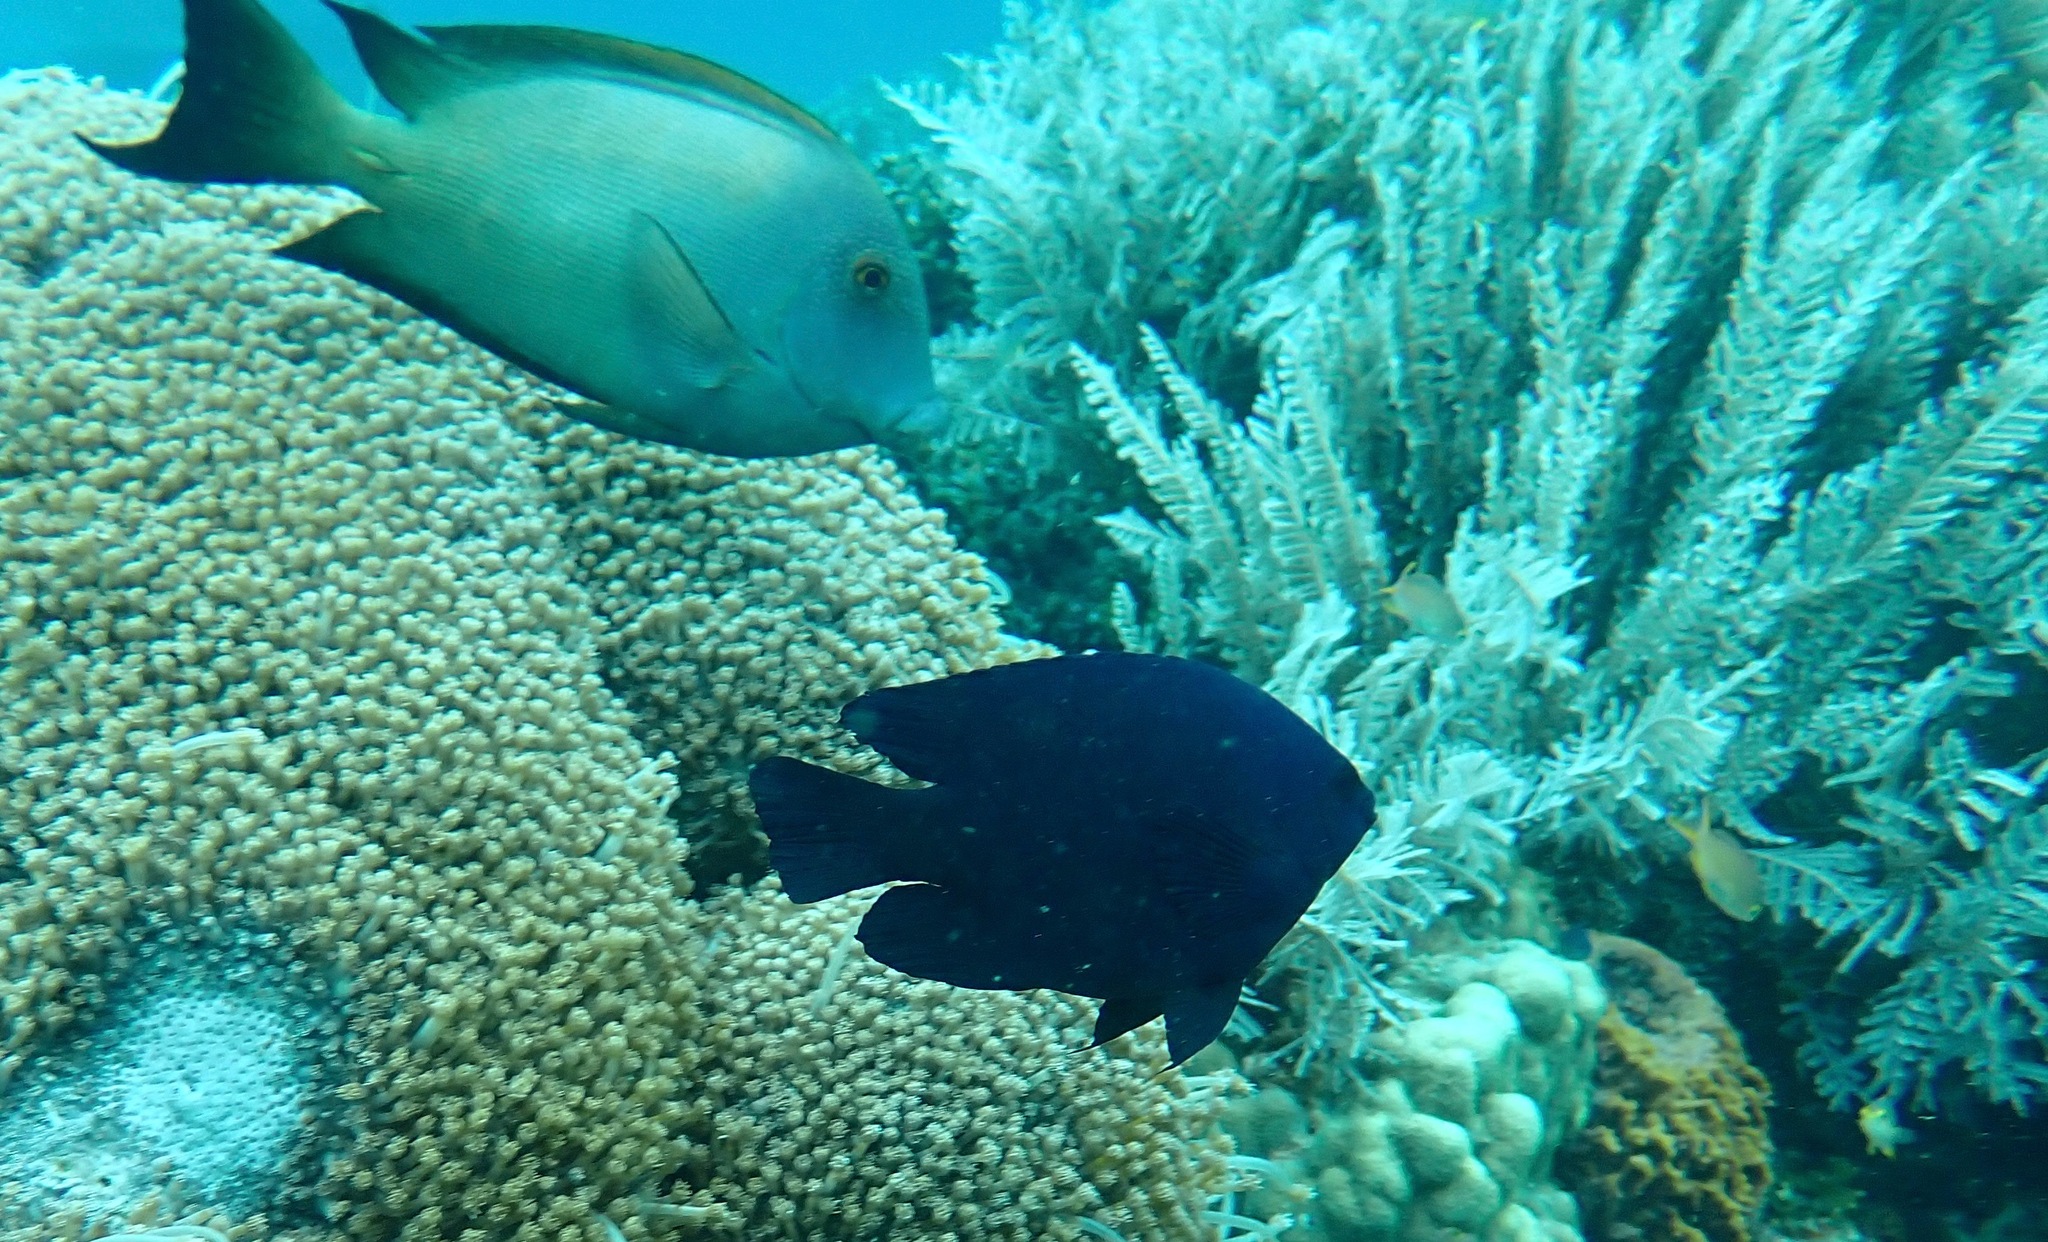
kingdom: Animalia
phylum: Chordata
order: Perciformes
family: Pomacentridae
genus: Neoglyphidodon
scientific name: Neoglyphidodon melas
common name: Black damsel
